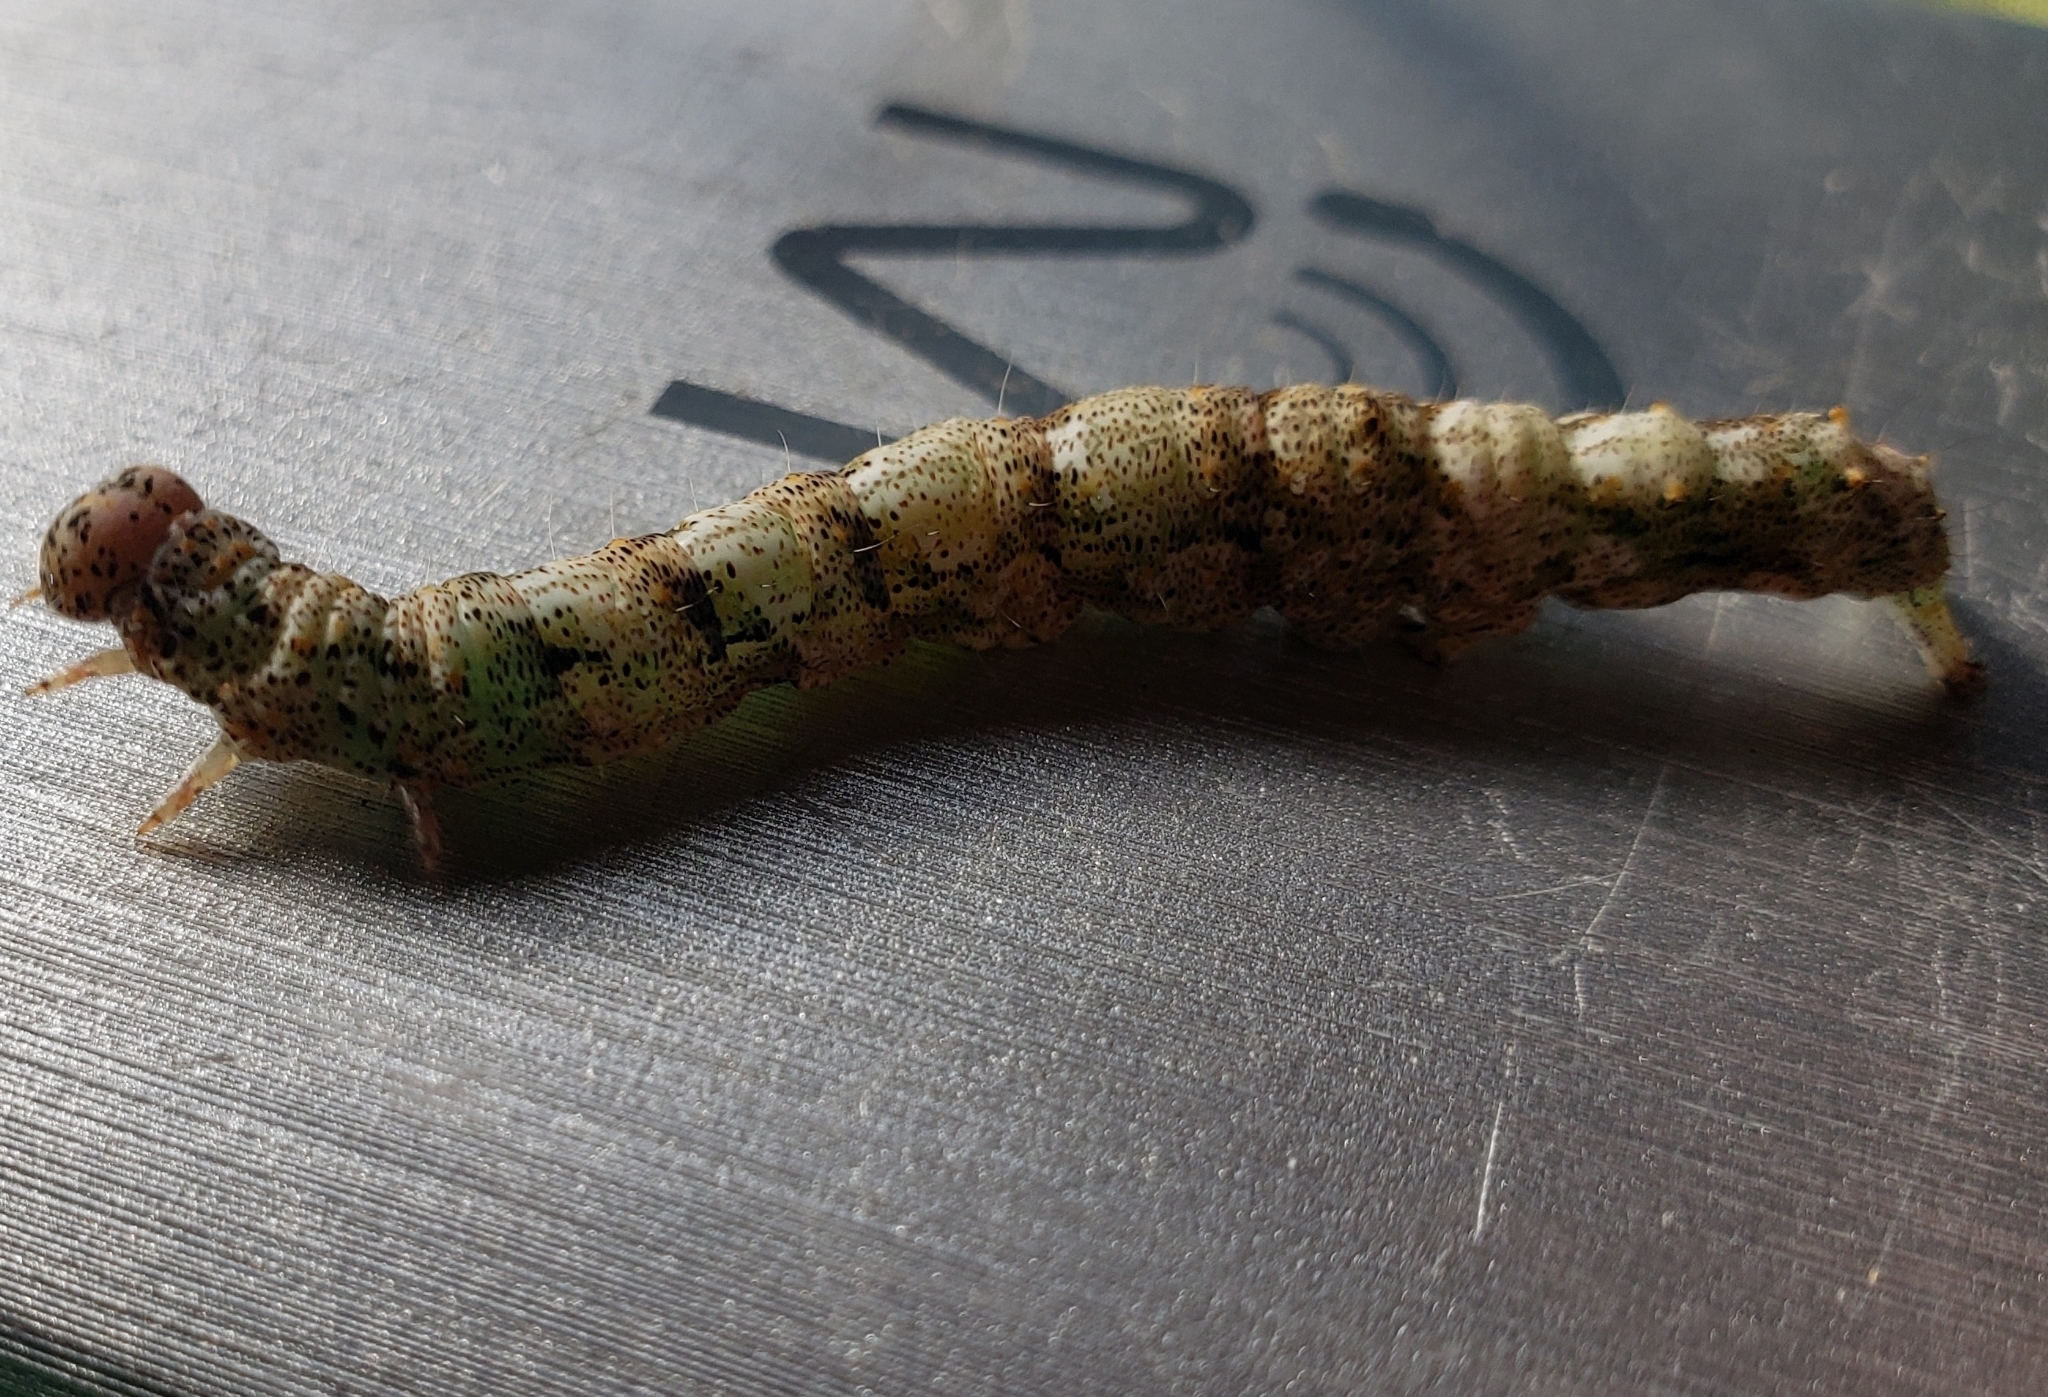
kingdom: Animalia
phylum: Arthropoda
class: Insecta
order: Lepidoptera
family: Erebidae
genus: Metria
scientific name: Metria amella
